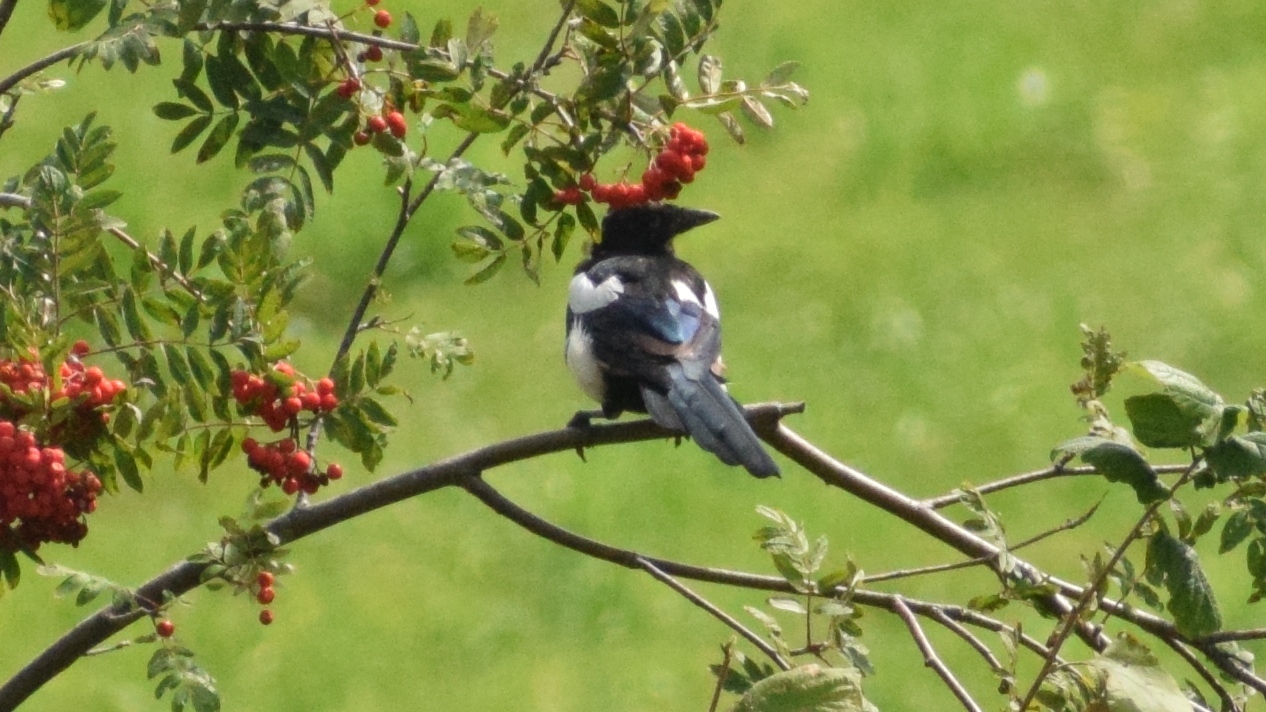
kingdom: Animalia
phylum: Chordata
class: Aves
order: Passeriformes
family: Corvidae
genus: Pica
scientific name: Pica pica
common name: Eurasian magpie
